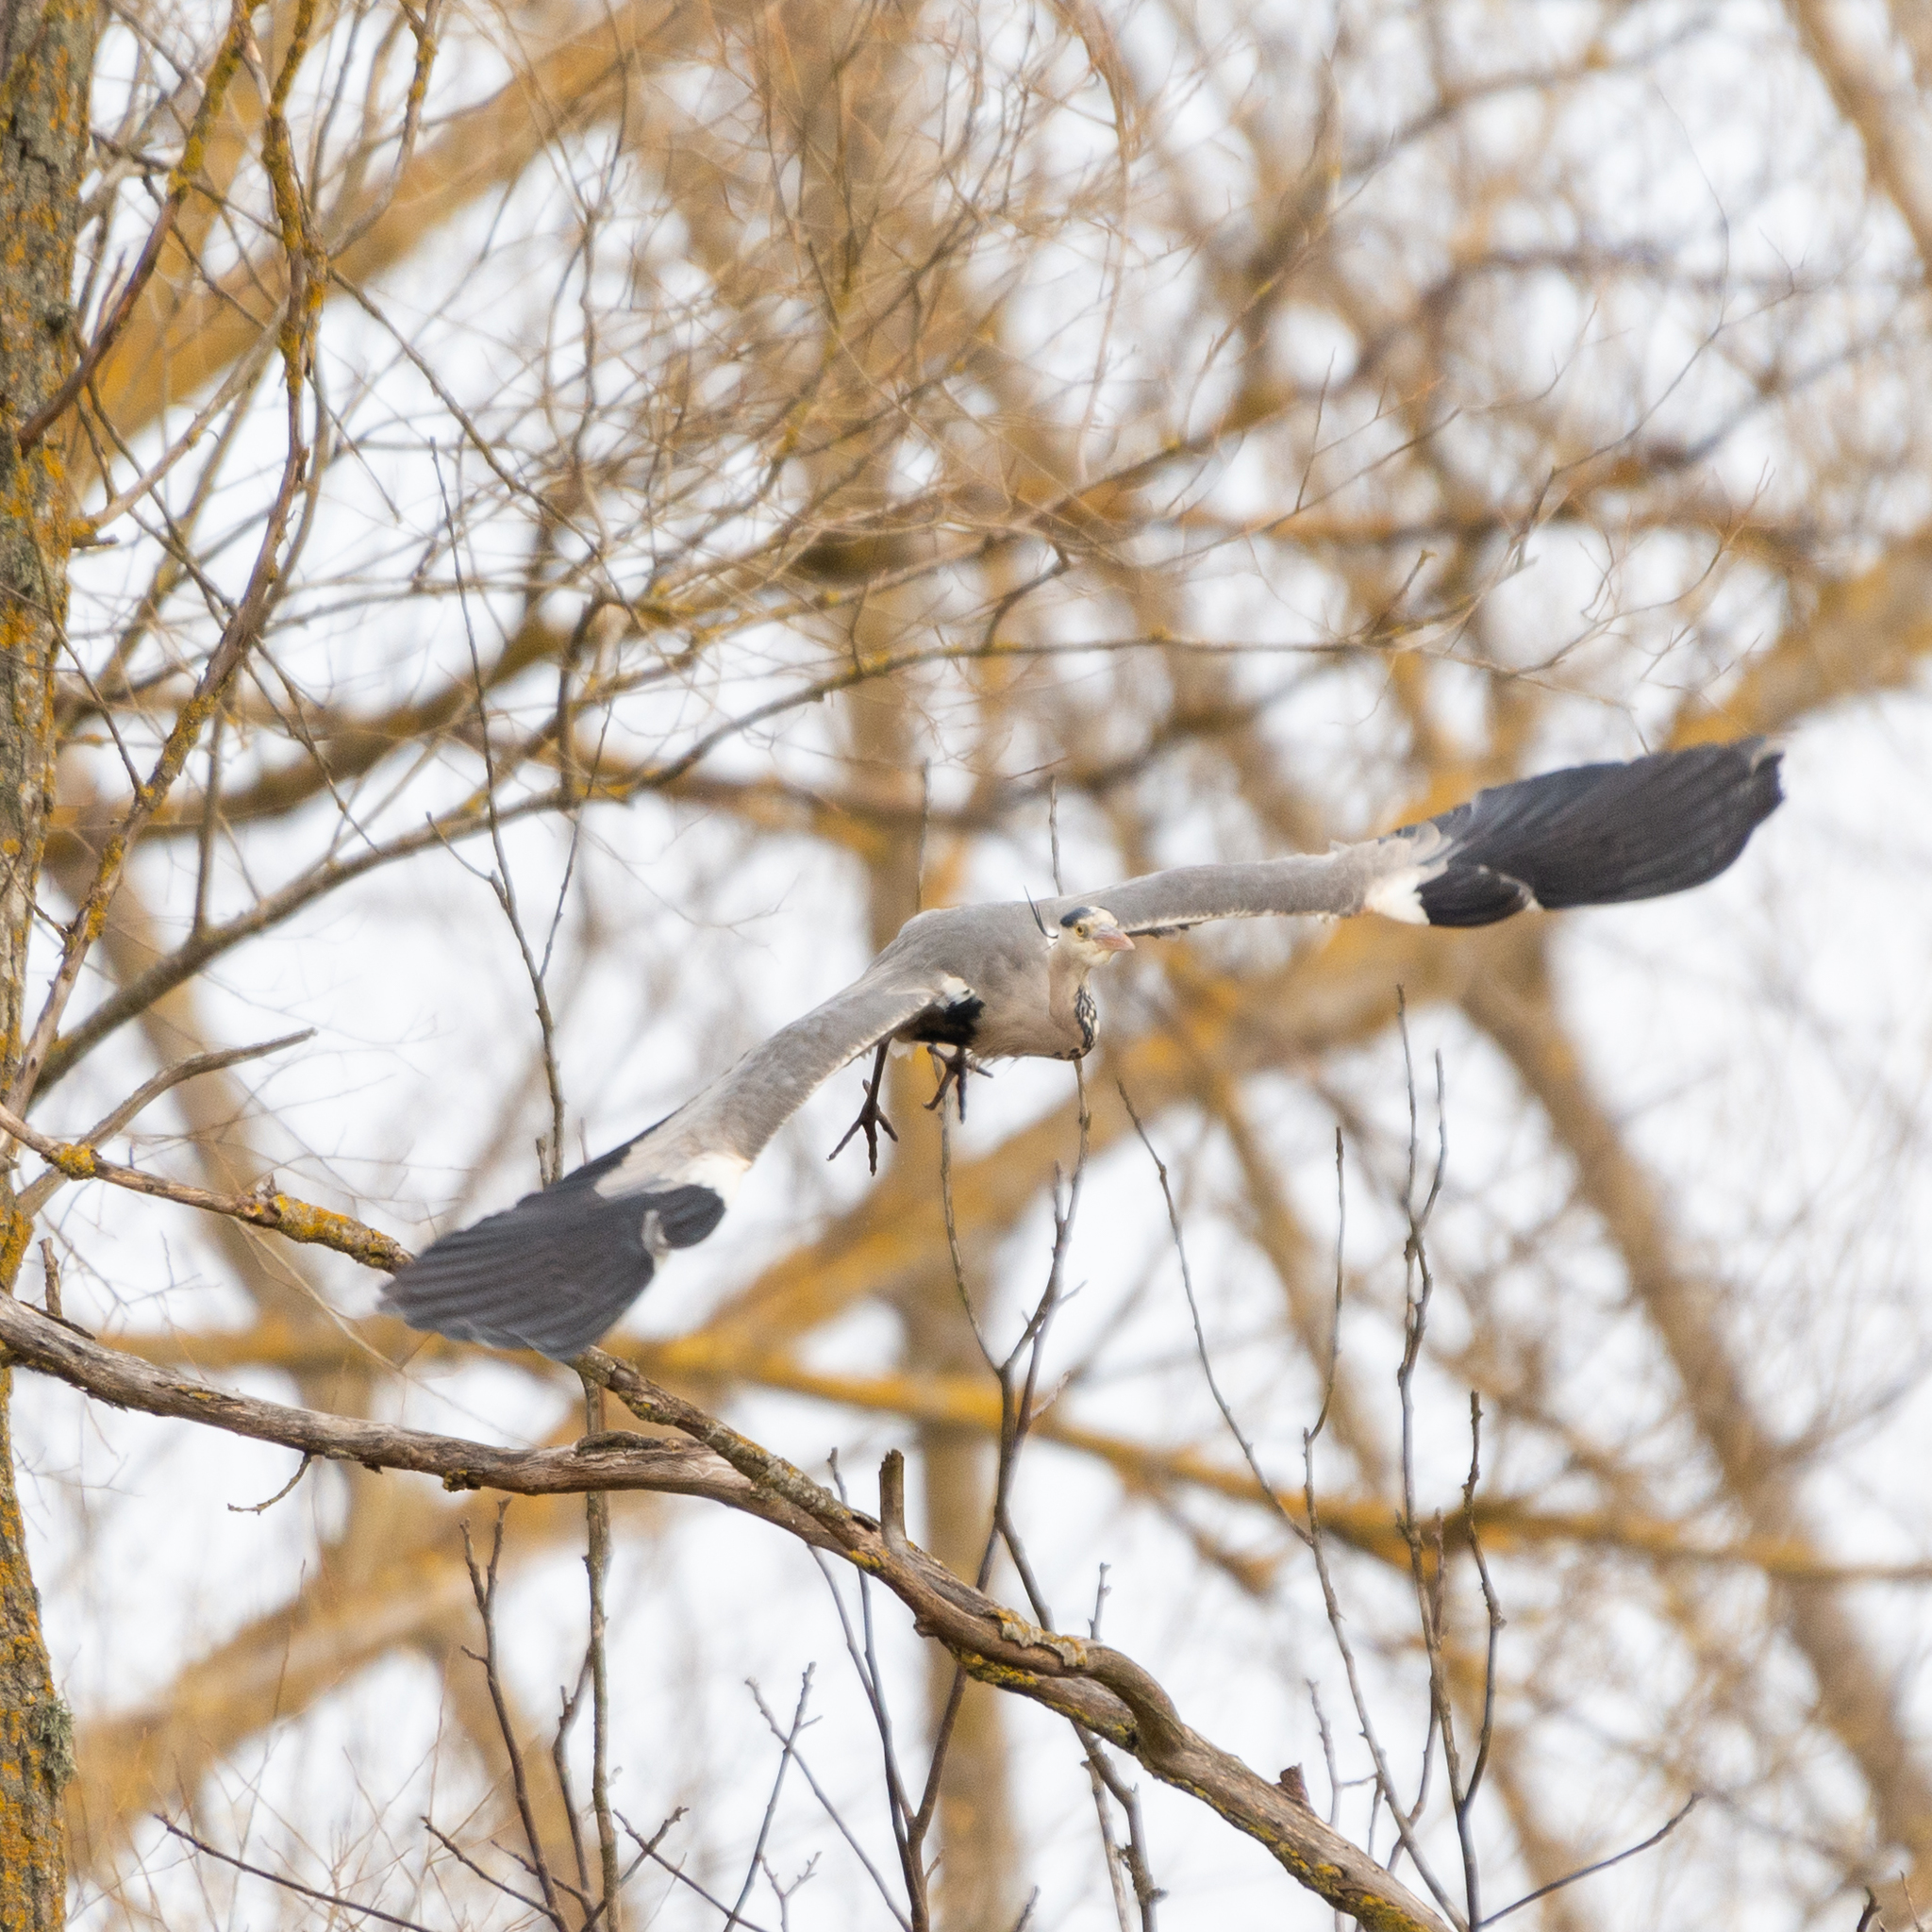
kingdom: Animalia
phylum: Chordata
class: Aves
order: Pelecaniformes
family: Ardeidae
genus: Ardea
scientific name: Ardea cinerea
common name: Grey heron
